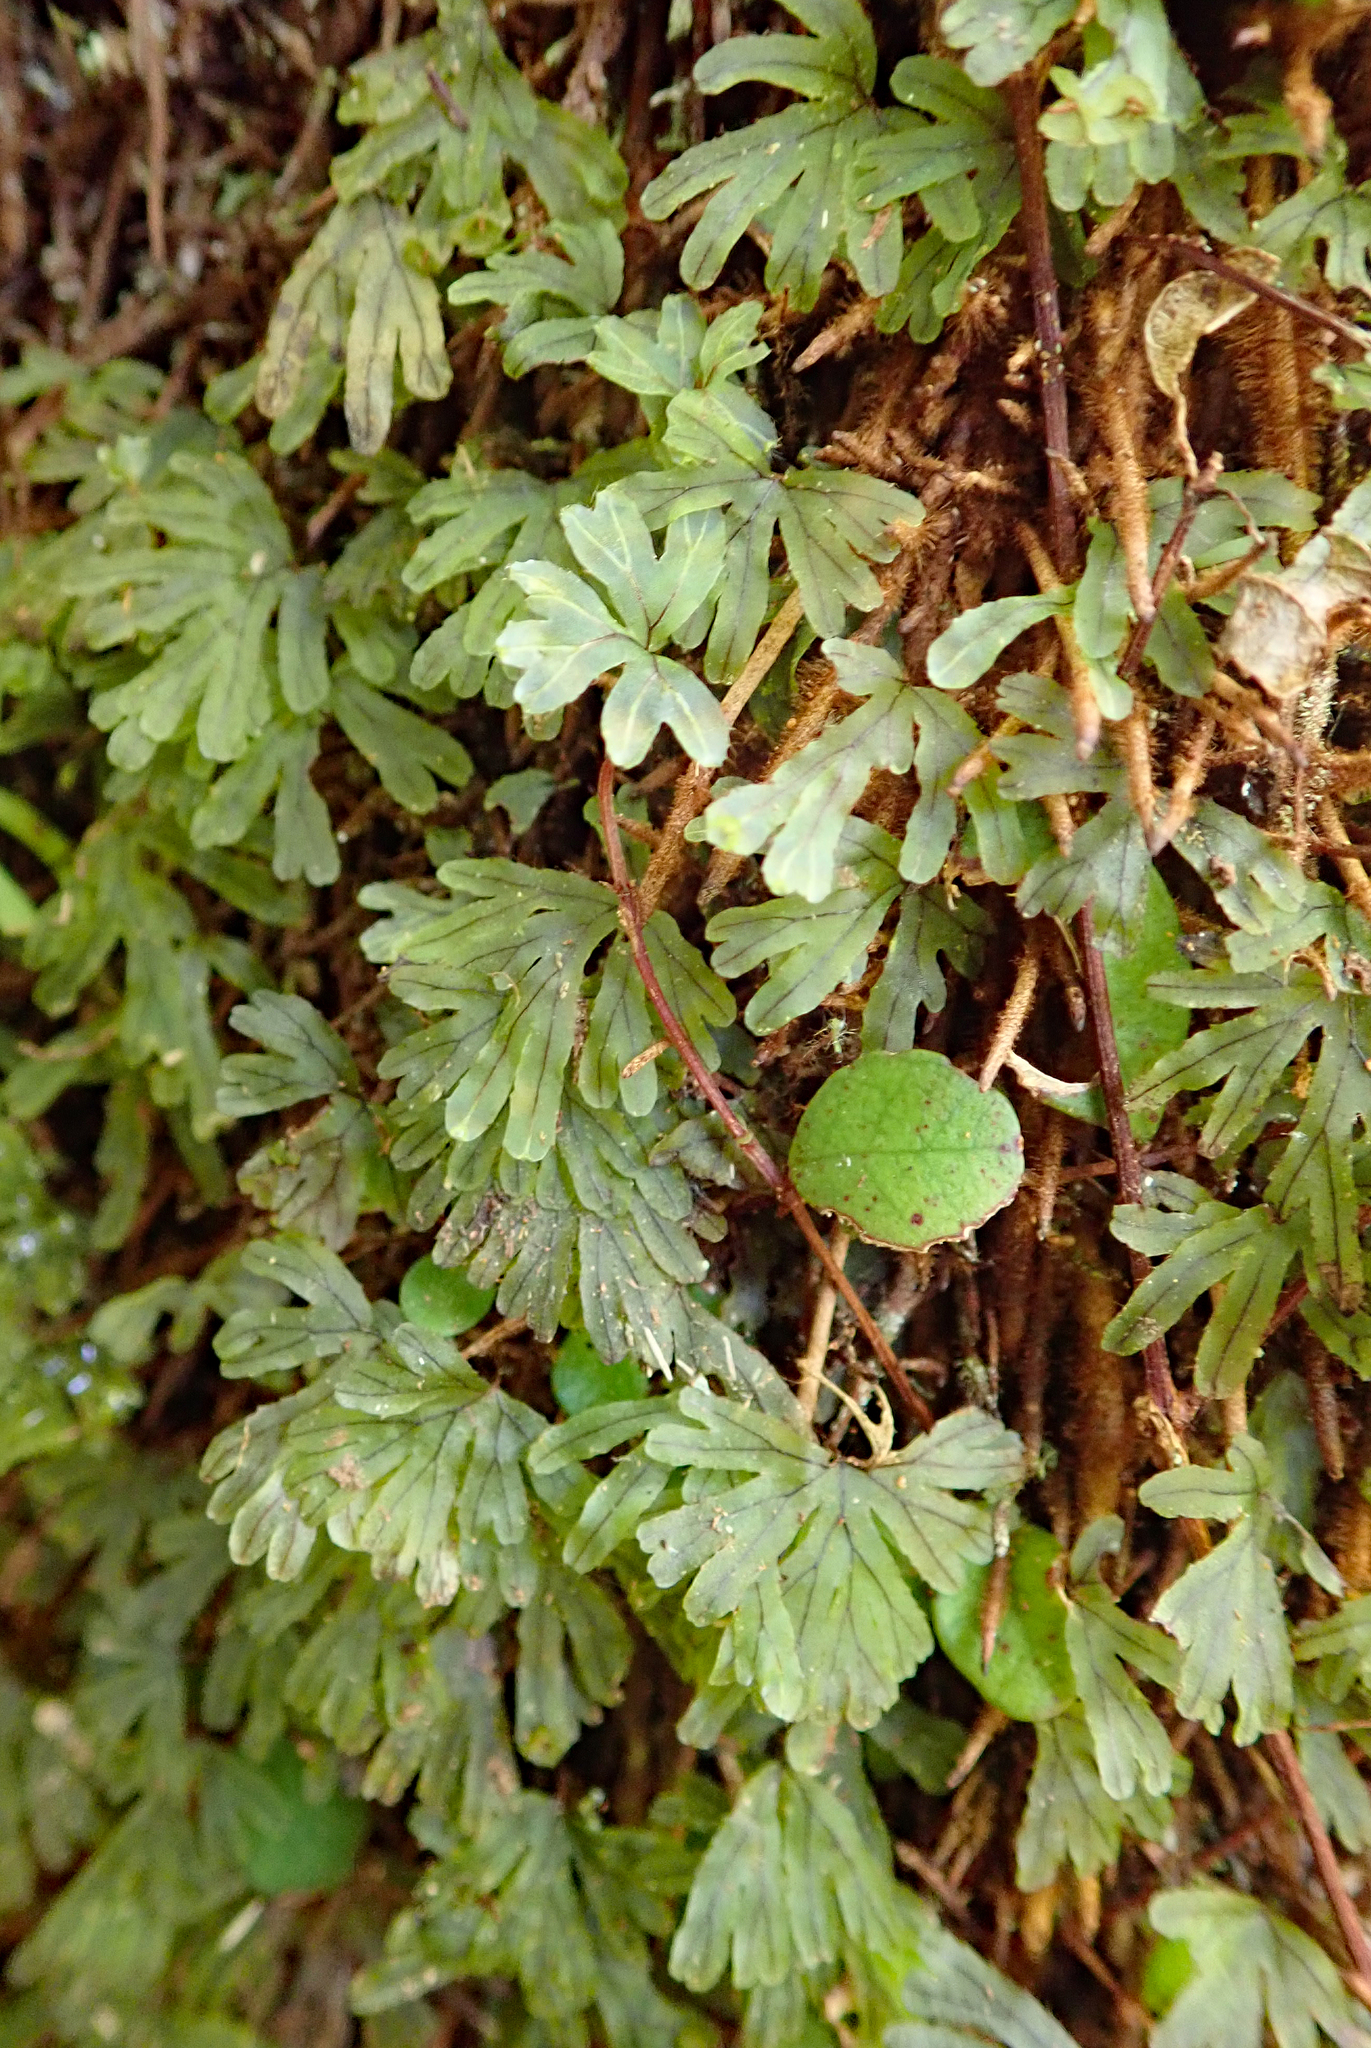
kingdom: Plantae
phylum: Tracheophyta
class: Polypodiopsida
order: Hymenophyllales
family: Hymenophyllaceae
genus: Hymenophyllum
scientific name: Hymenophyllum lyallii
